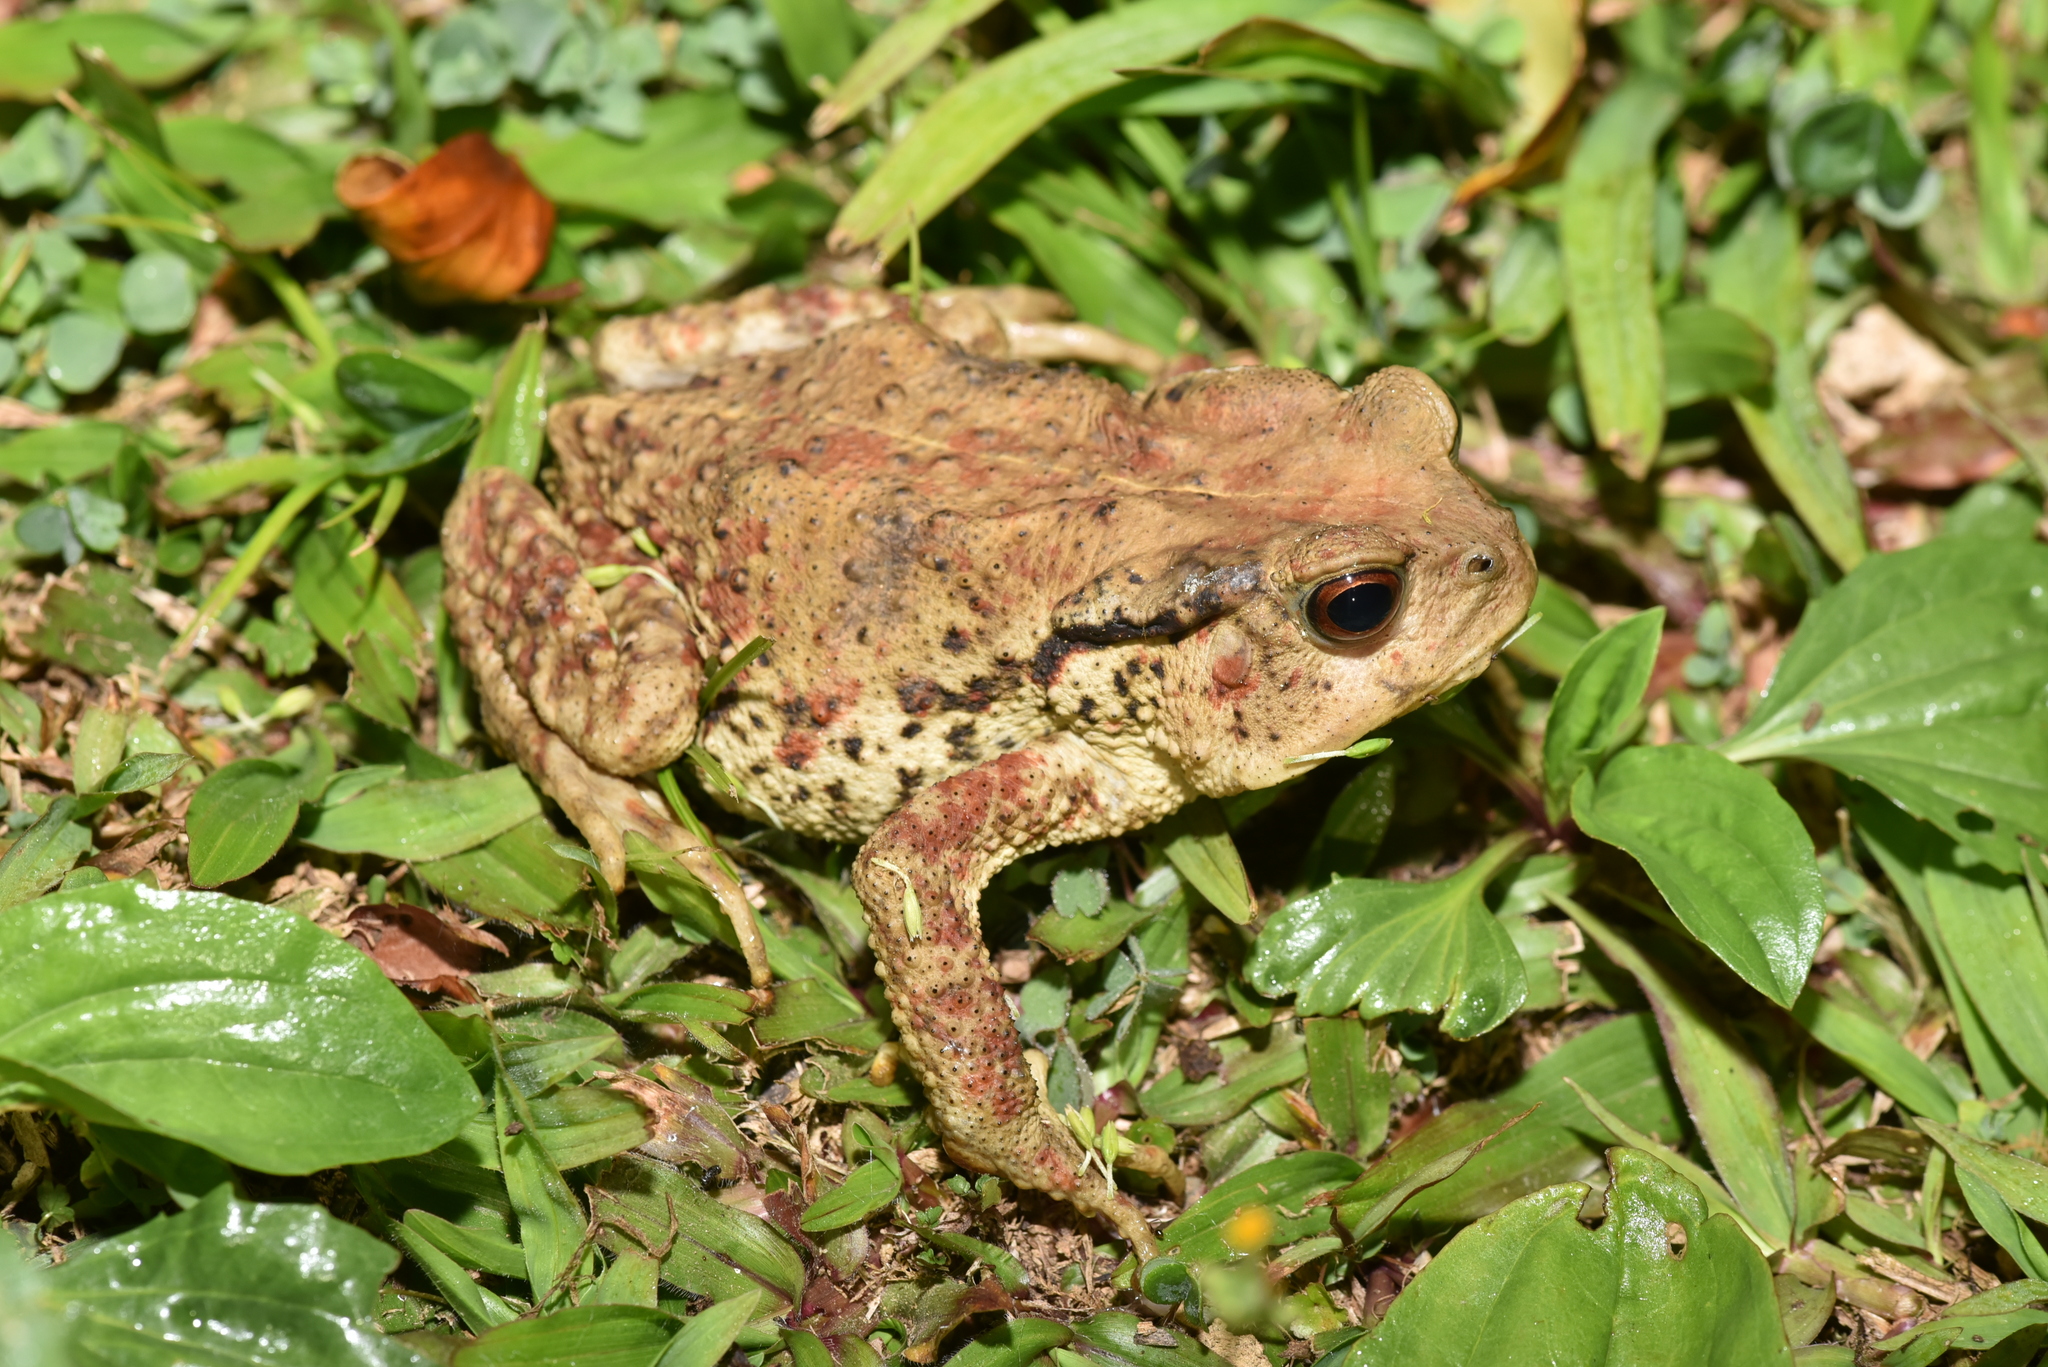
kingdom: Animalia
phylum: Chordata
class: Amphibia
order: Anura
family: Bufonidae
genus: Bufo
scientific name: Bufo bankorensis
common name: Bankor toad
